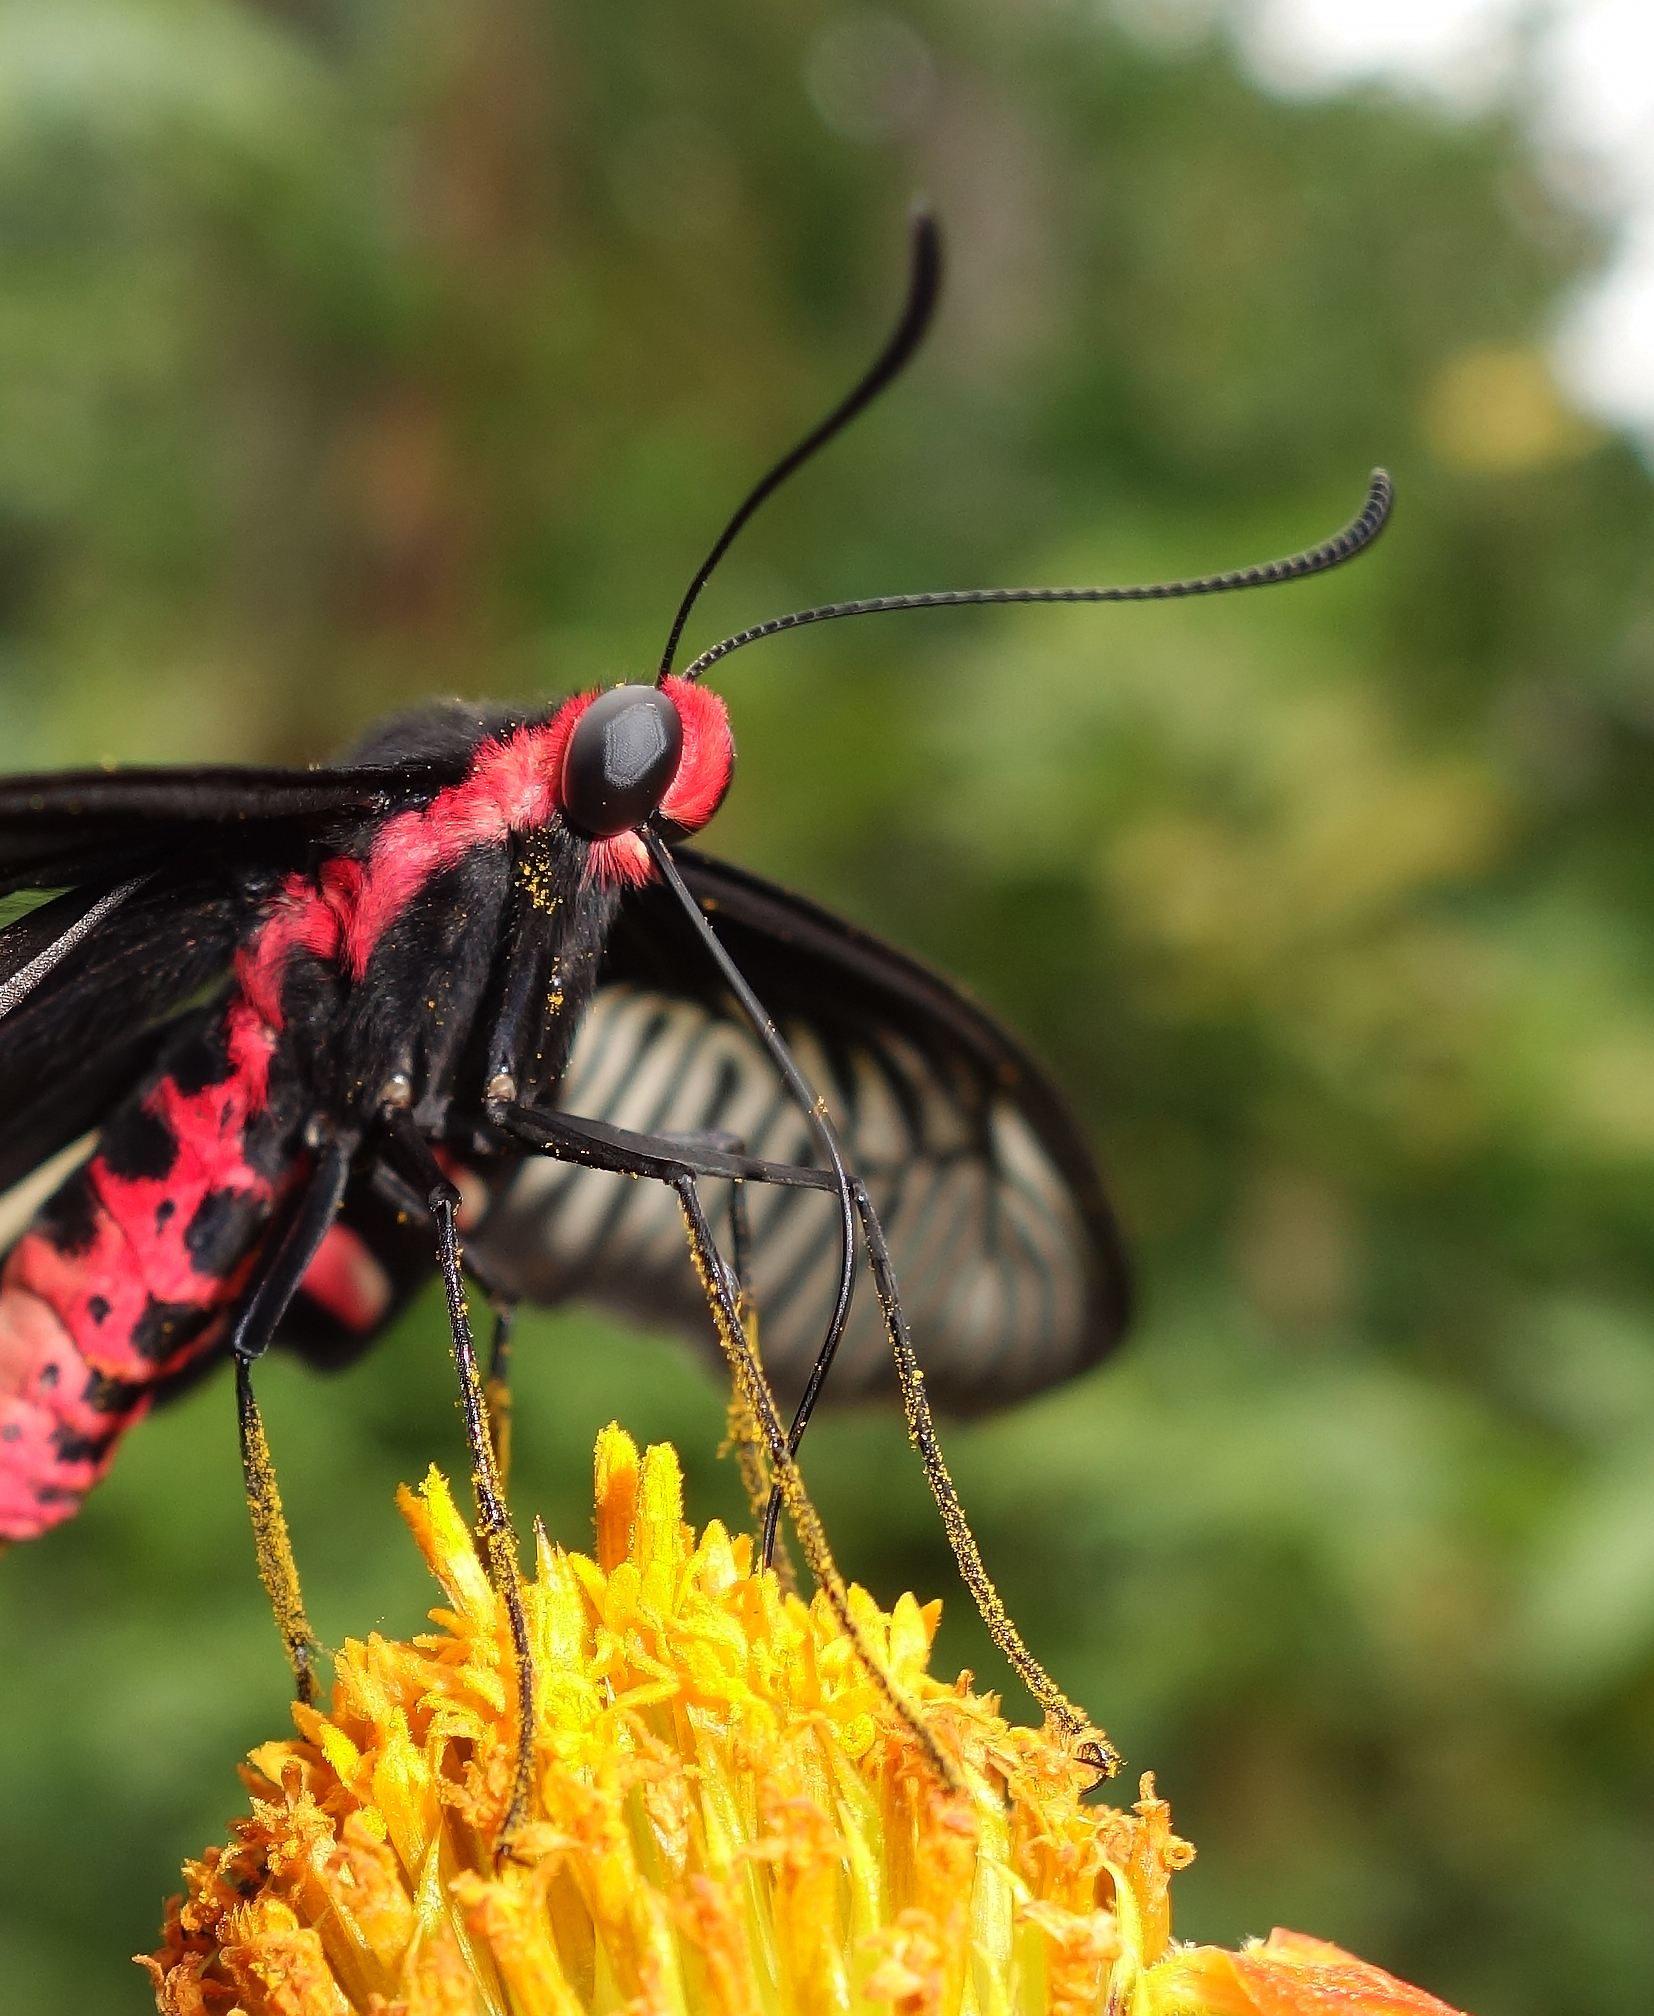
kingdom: Animalia
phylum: Arthropoda
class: Insecta
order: Lepidoptera
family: Papilionidae
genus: Pachliopta
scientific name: Pachliopta aristolochiae
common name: Common rose
